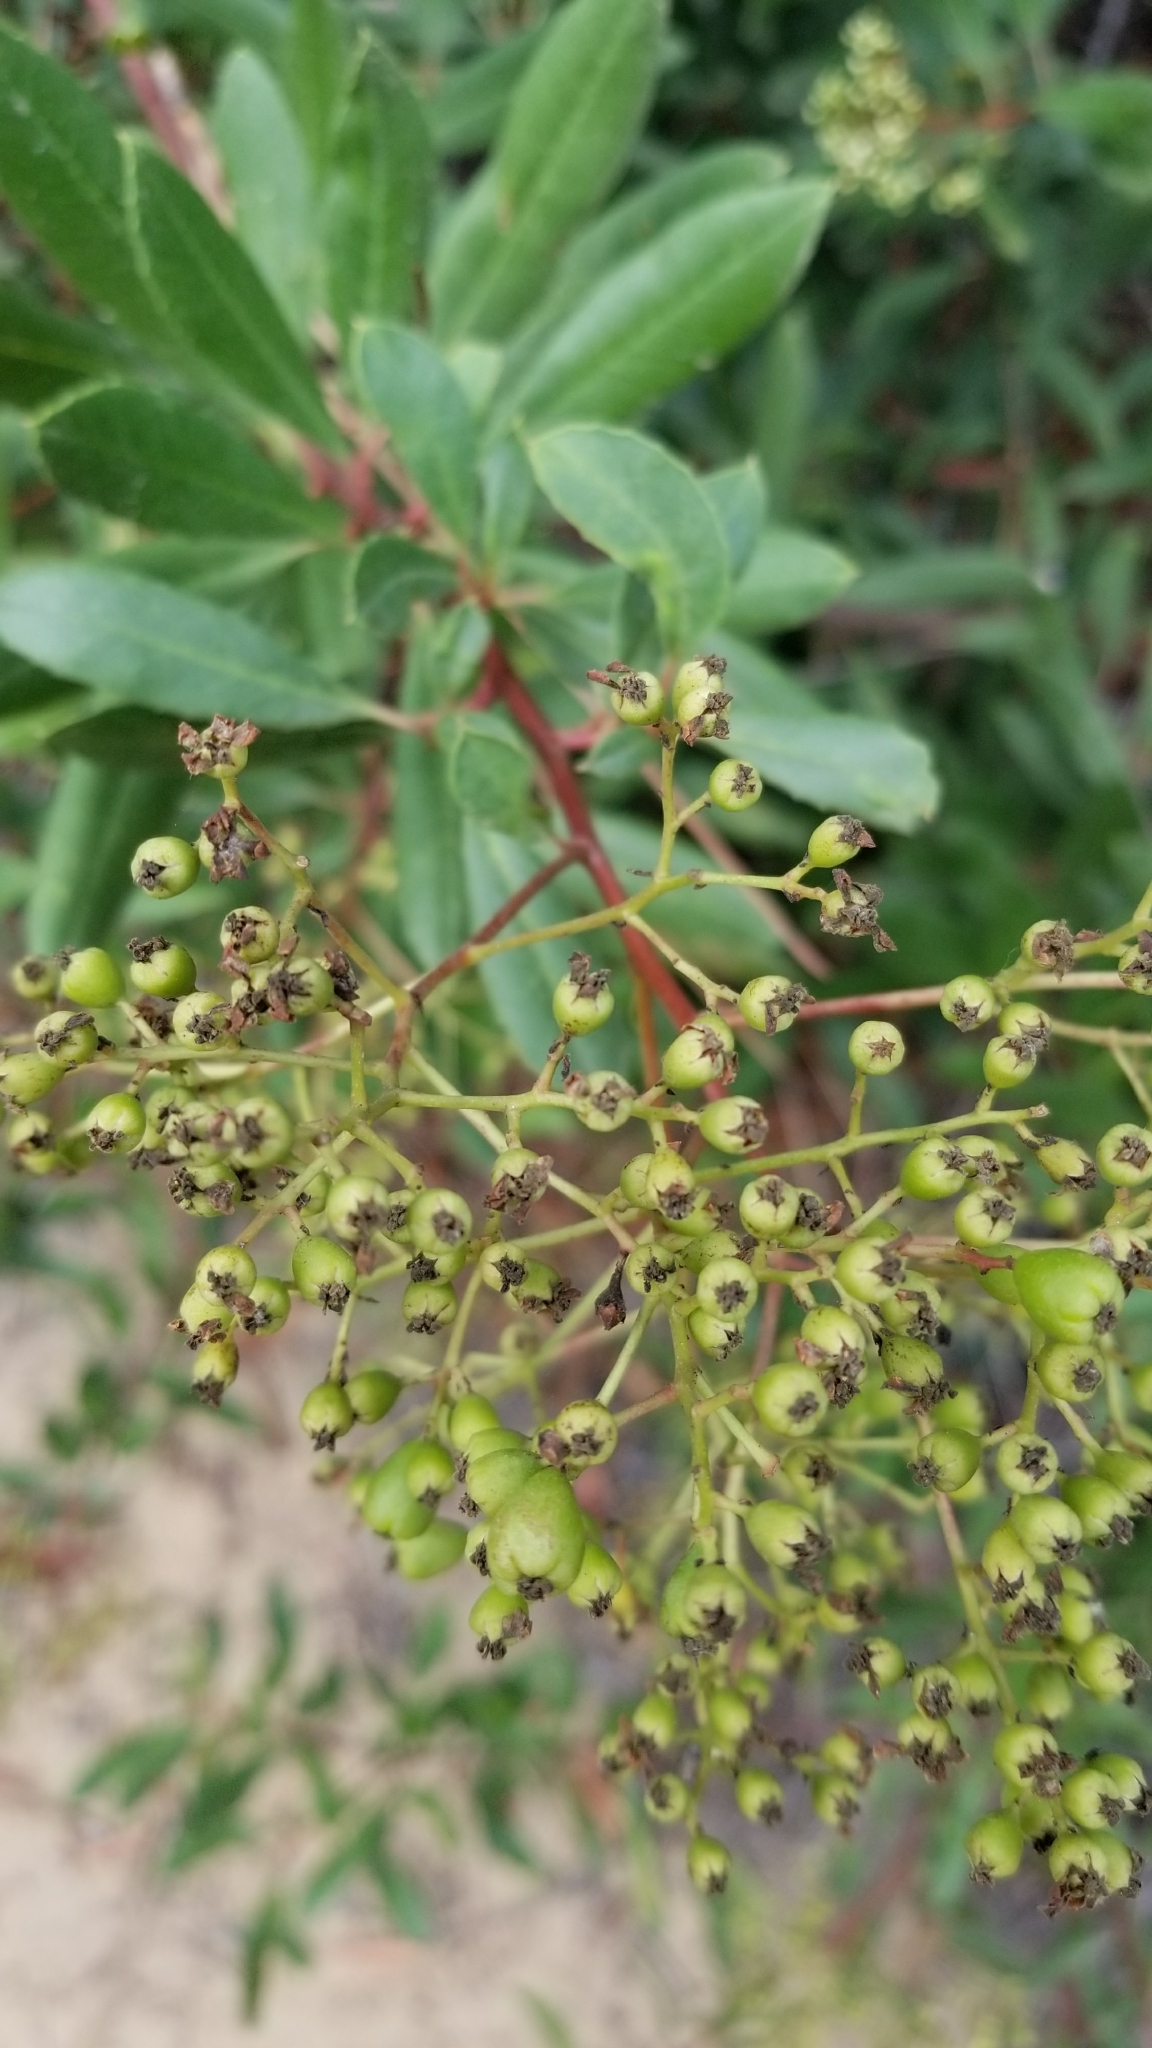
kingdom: Plantae
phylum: Tracheophyta
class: Magnoliopsida
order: Rosales
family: Rosaceae
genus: Heteromeles
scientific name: Heteromeles arbutifolia
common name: California-holly
